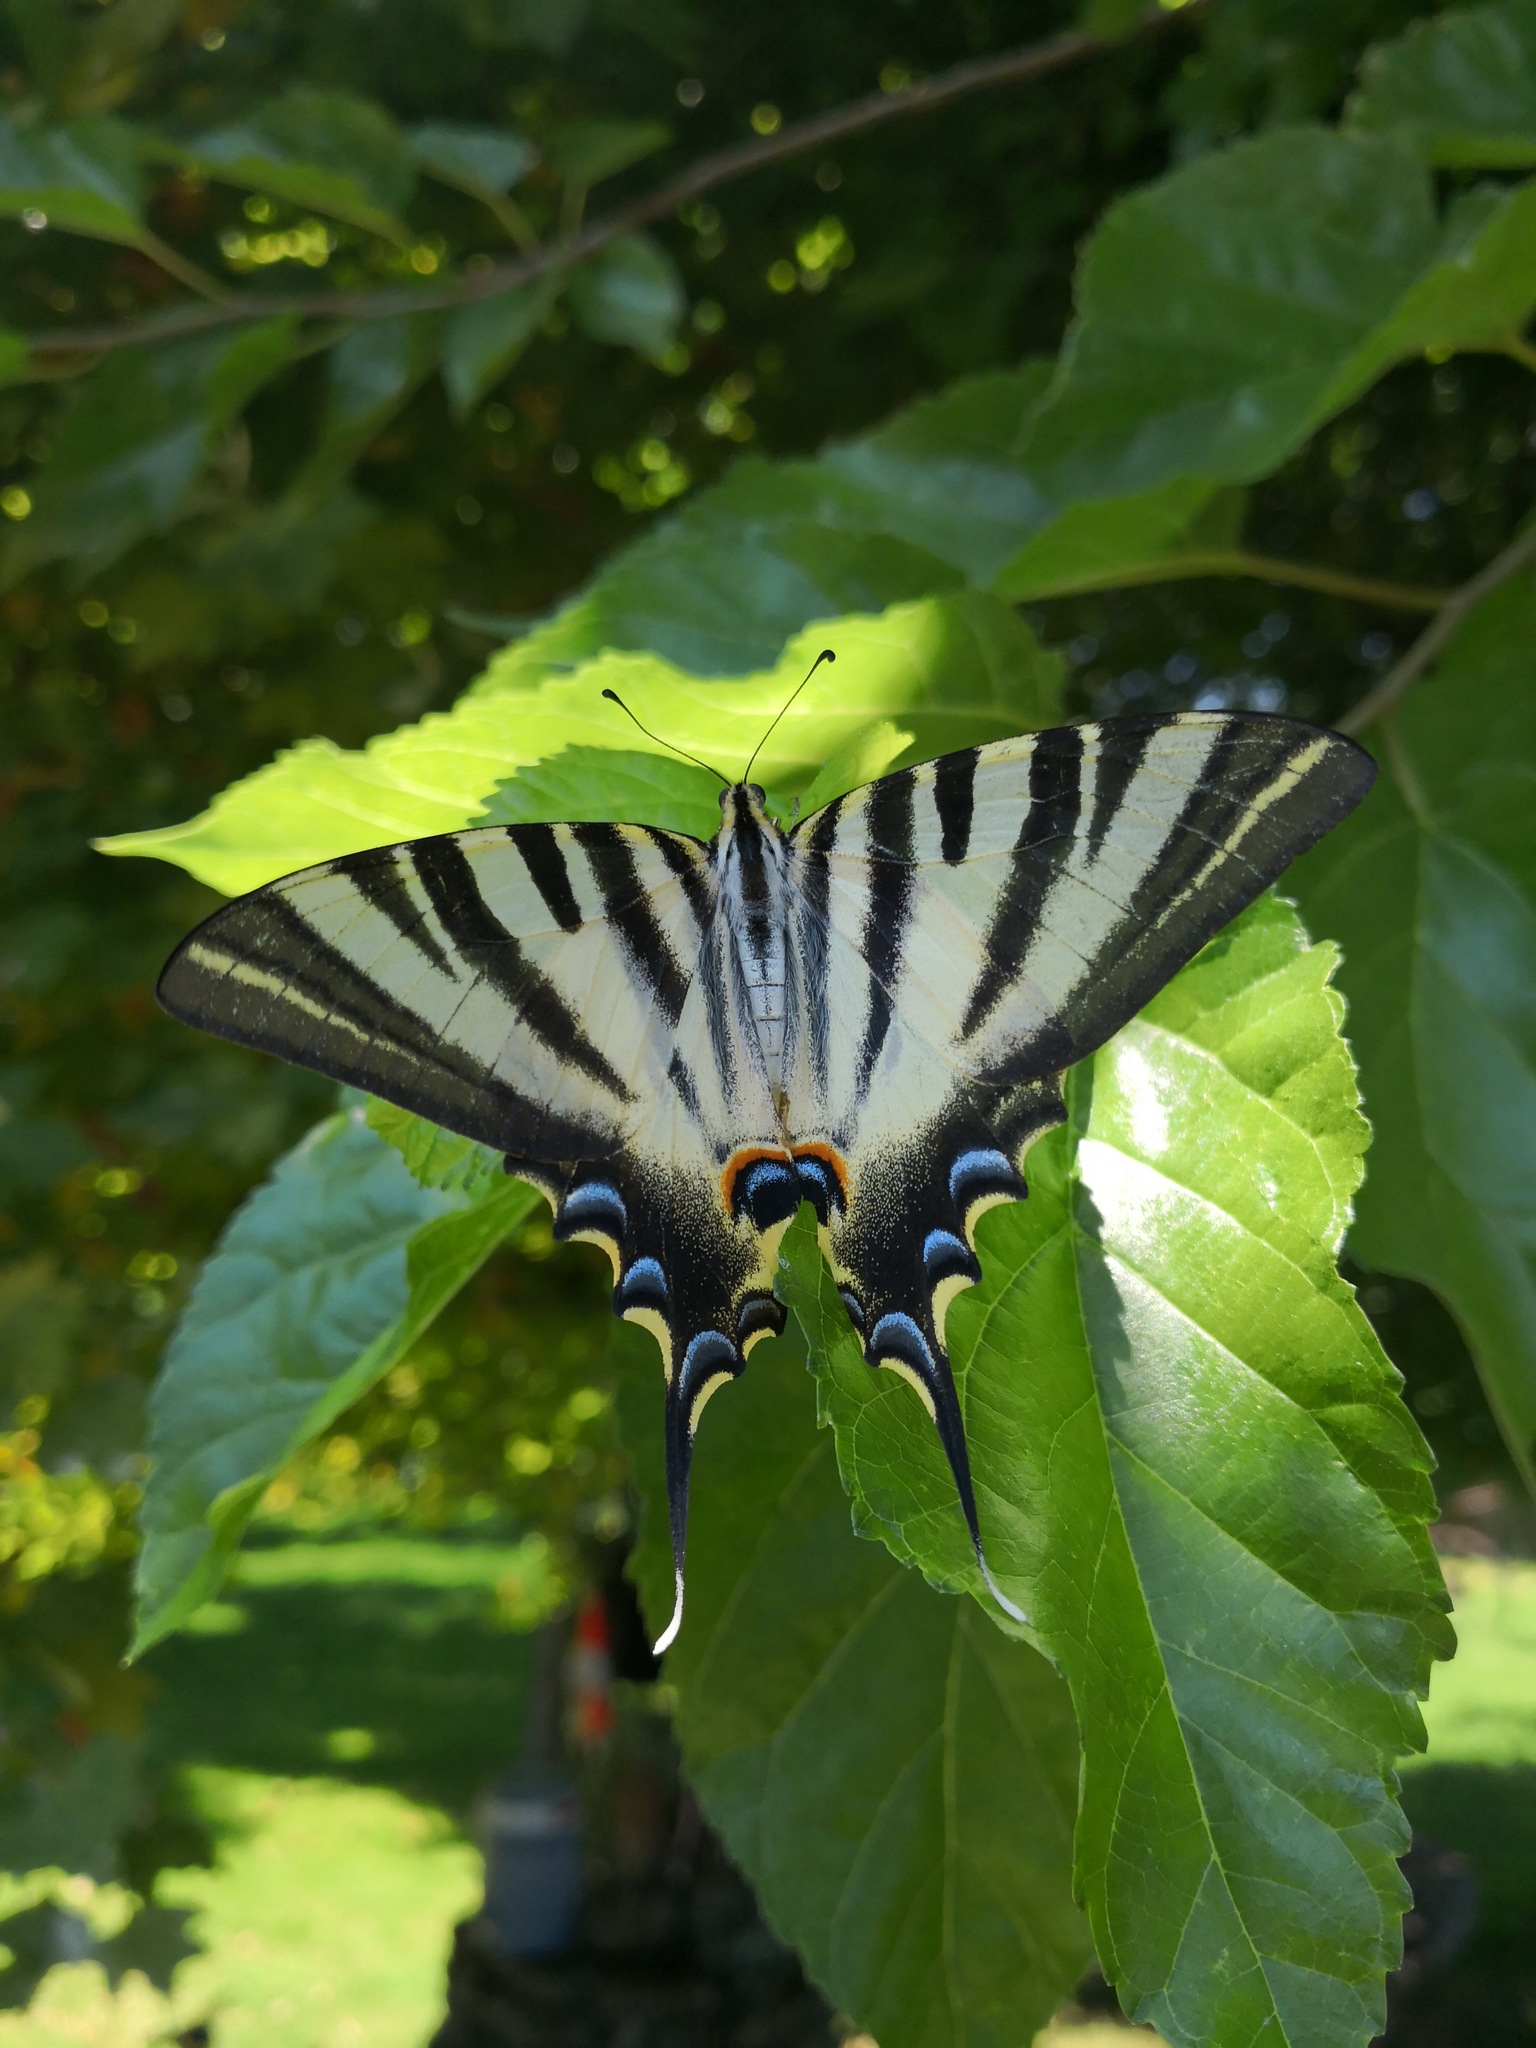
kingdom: Animalia
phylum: Arthropoda
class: Insecta
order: Lepidoptera
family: Papilionidae
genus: Iphiclides
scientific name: Iphiclides feisthamelii
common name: Iberian scarce swallowtail
